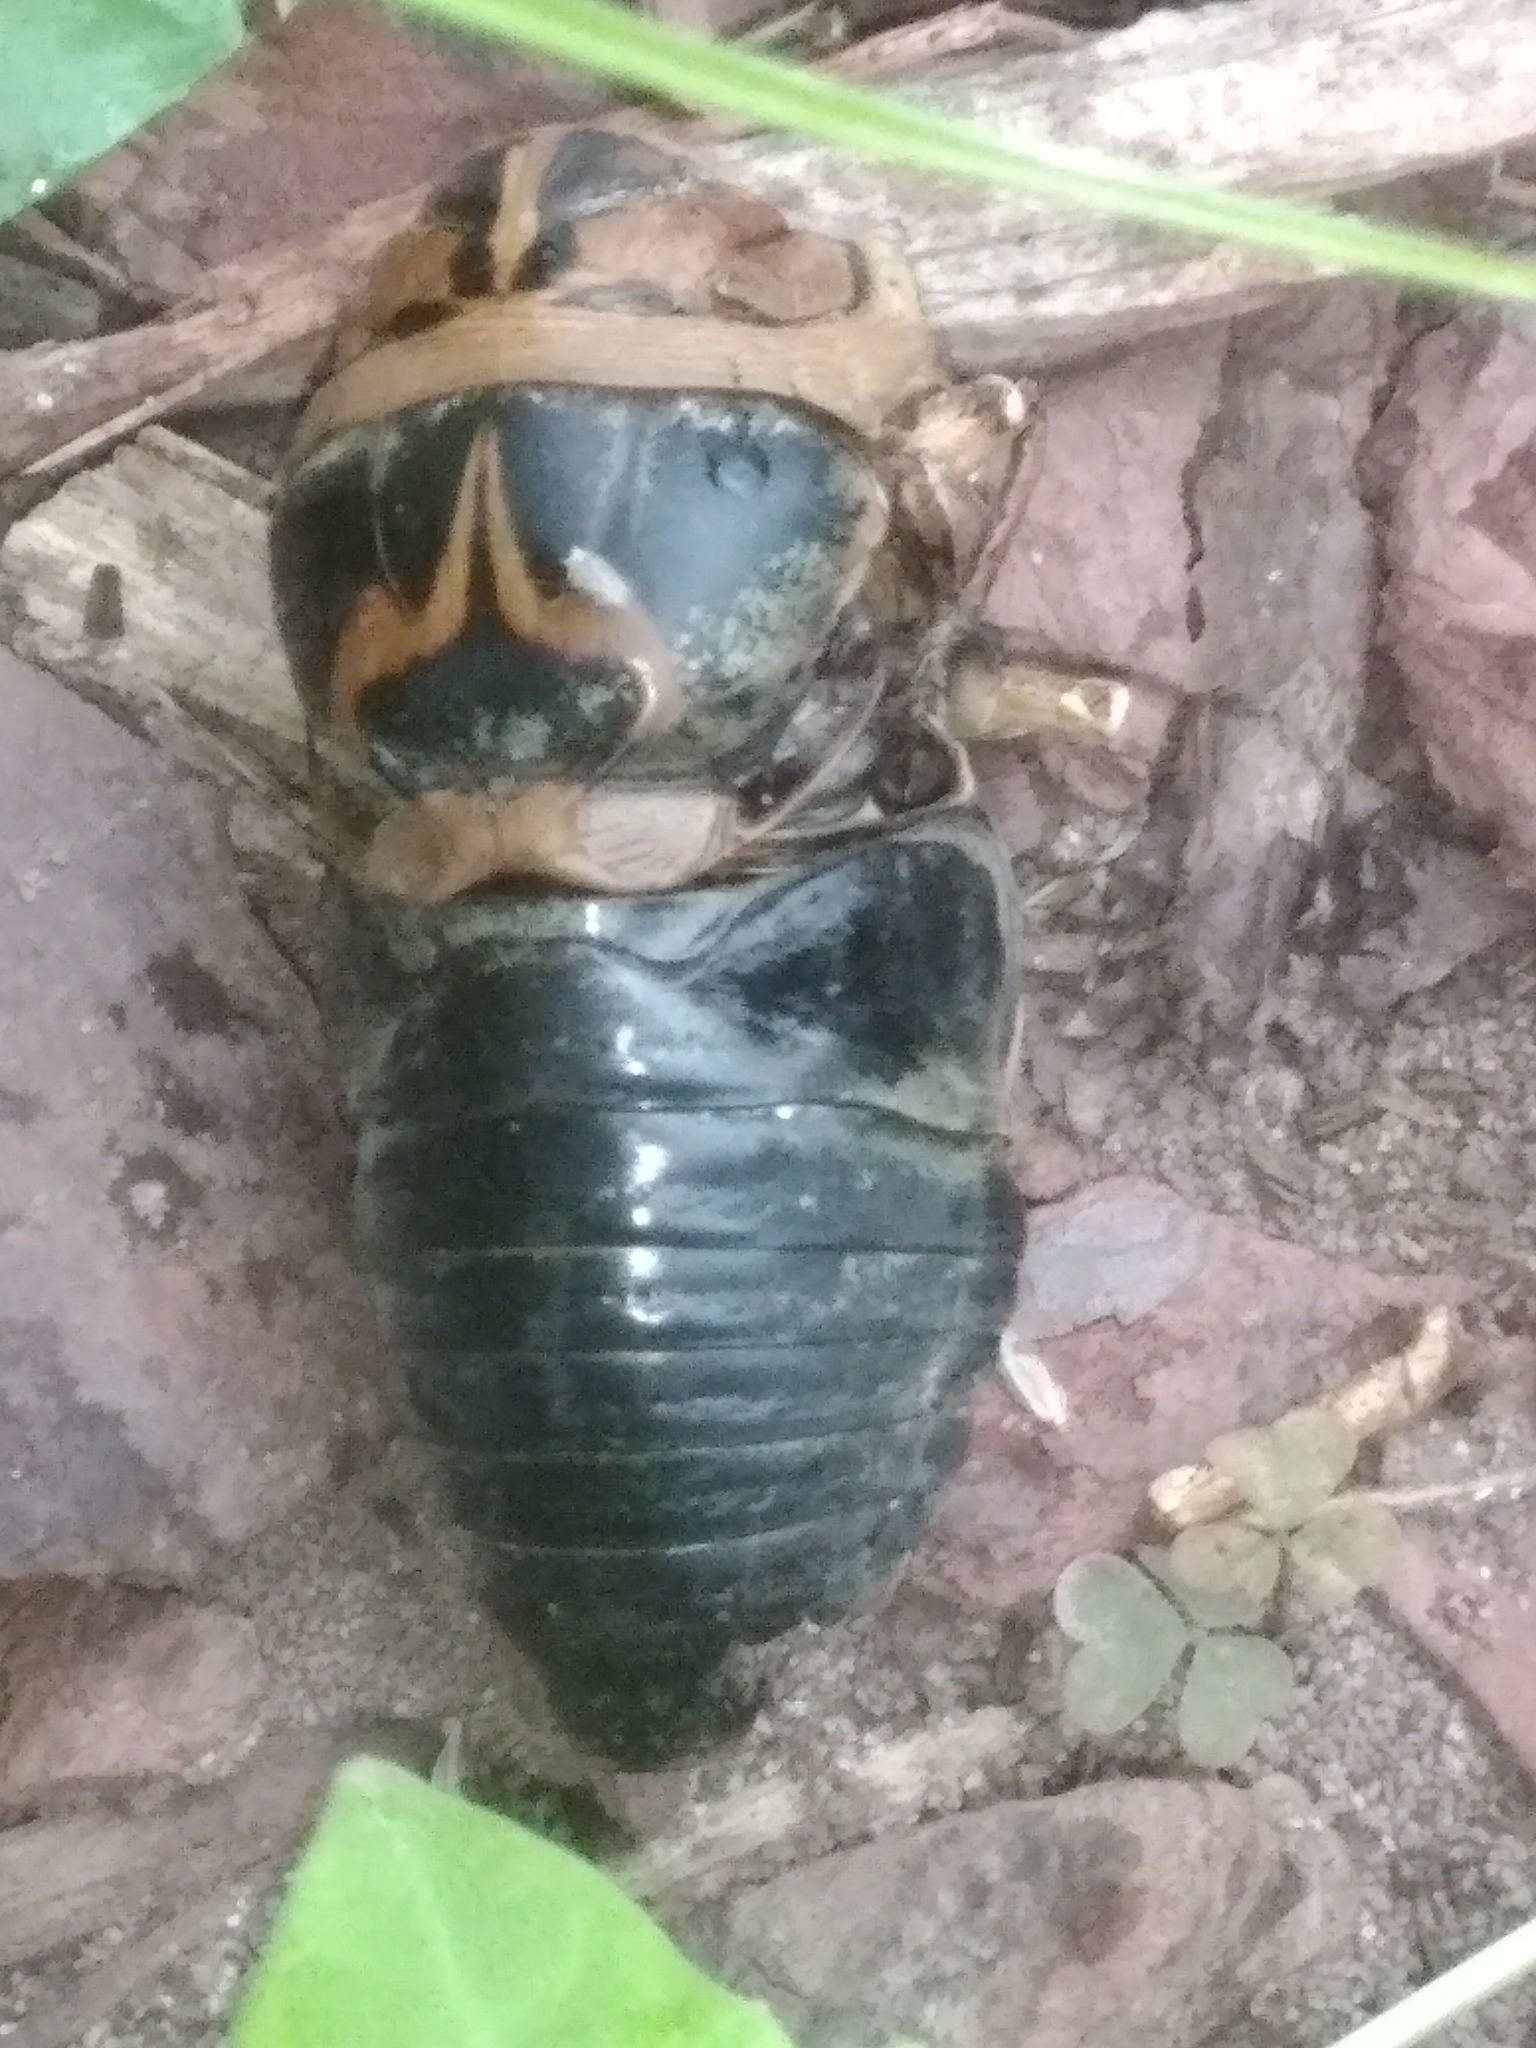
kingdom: Animalia
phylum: Arthropoda
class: Insecta
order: Hemiptera
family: Cicadidae
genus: Diceroprocta
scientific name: Diceroprocta grossa
